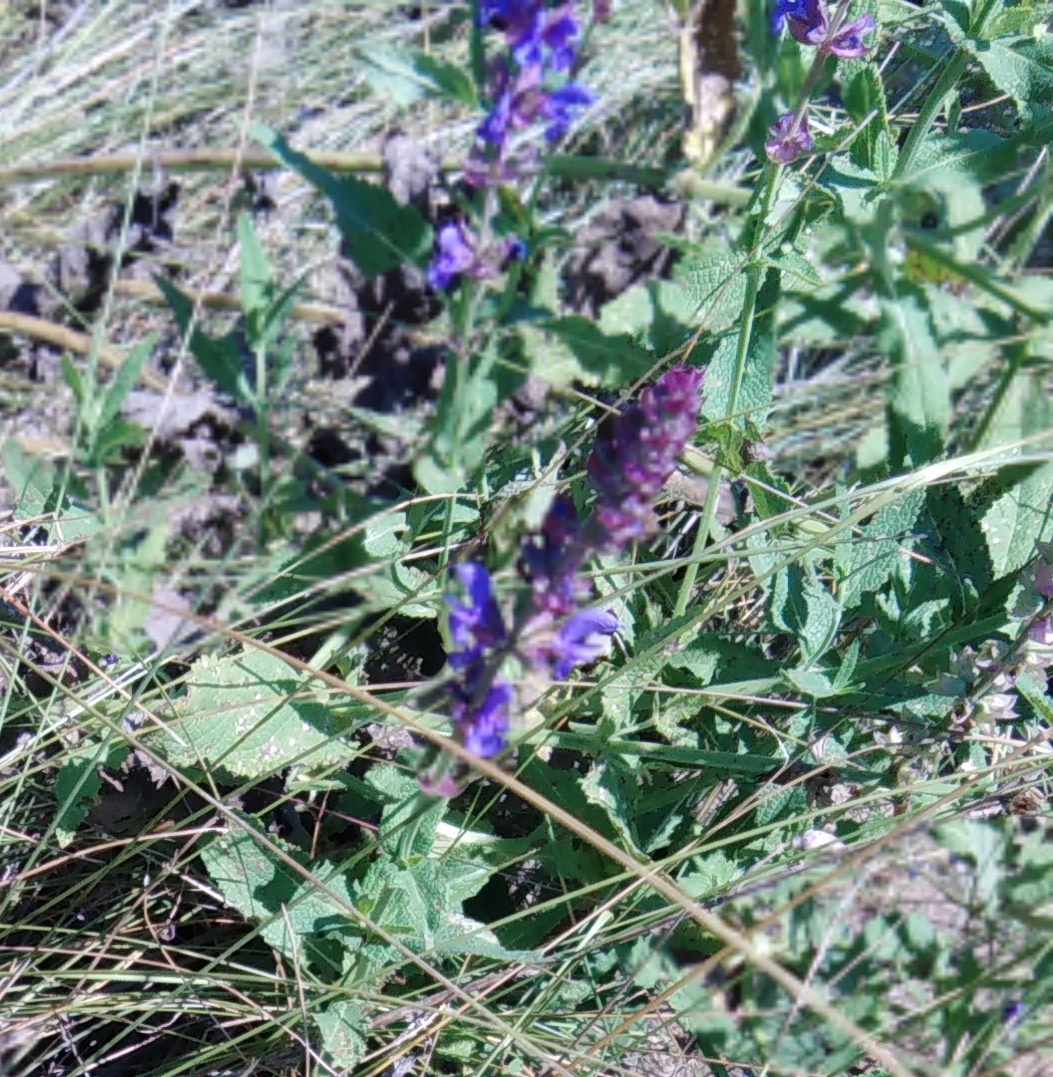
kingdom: Plantae
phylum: Tracheophyta
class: Magnoliopsida
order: Lamiales
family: Lamiaceae
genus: Salvia
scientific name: Salvia nemorosa
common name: Balkan clary
